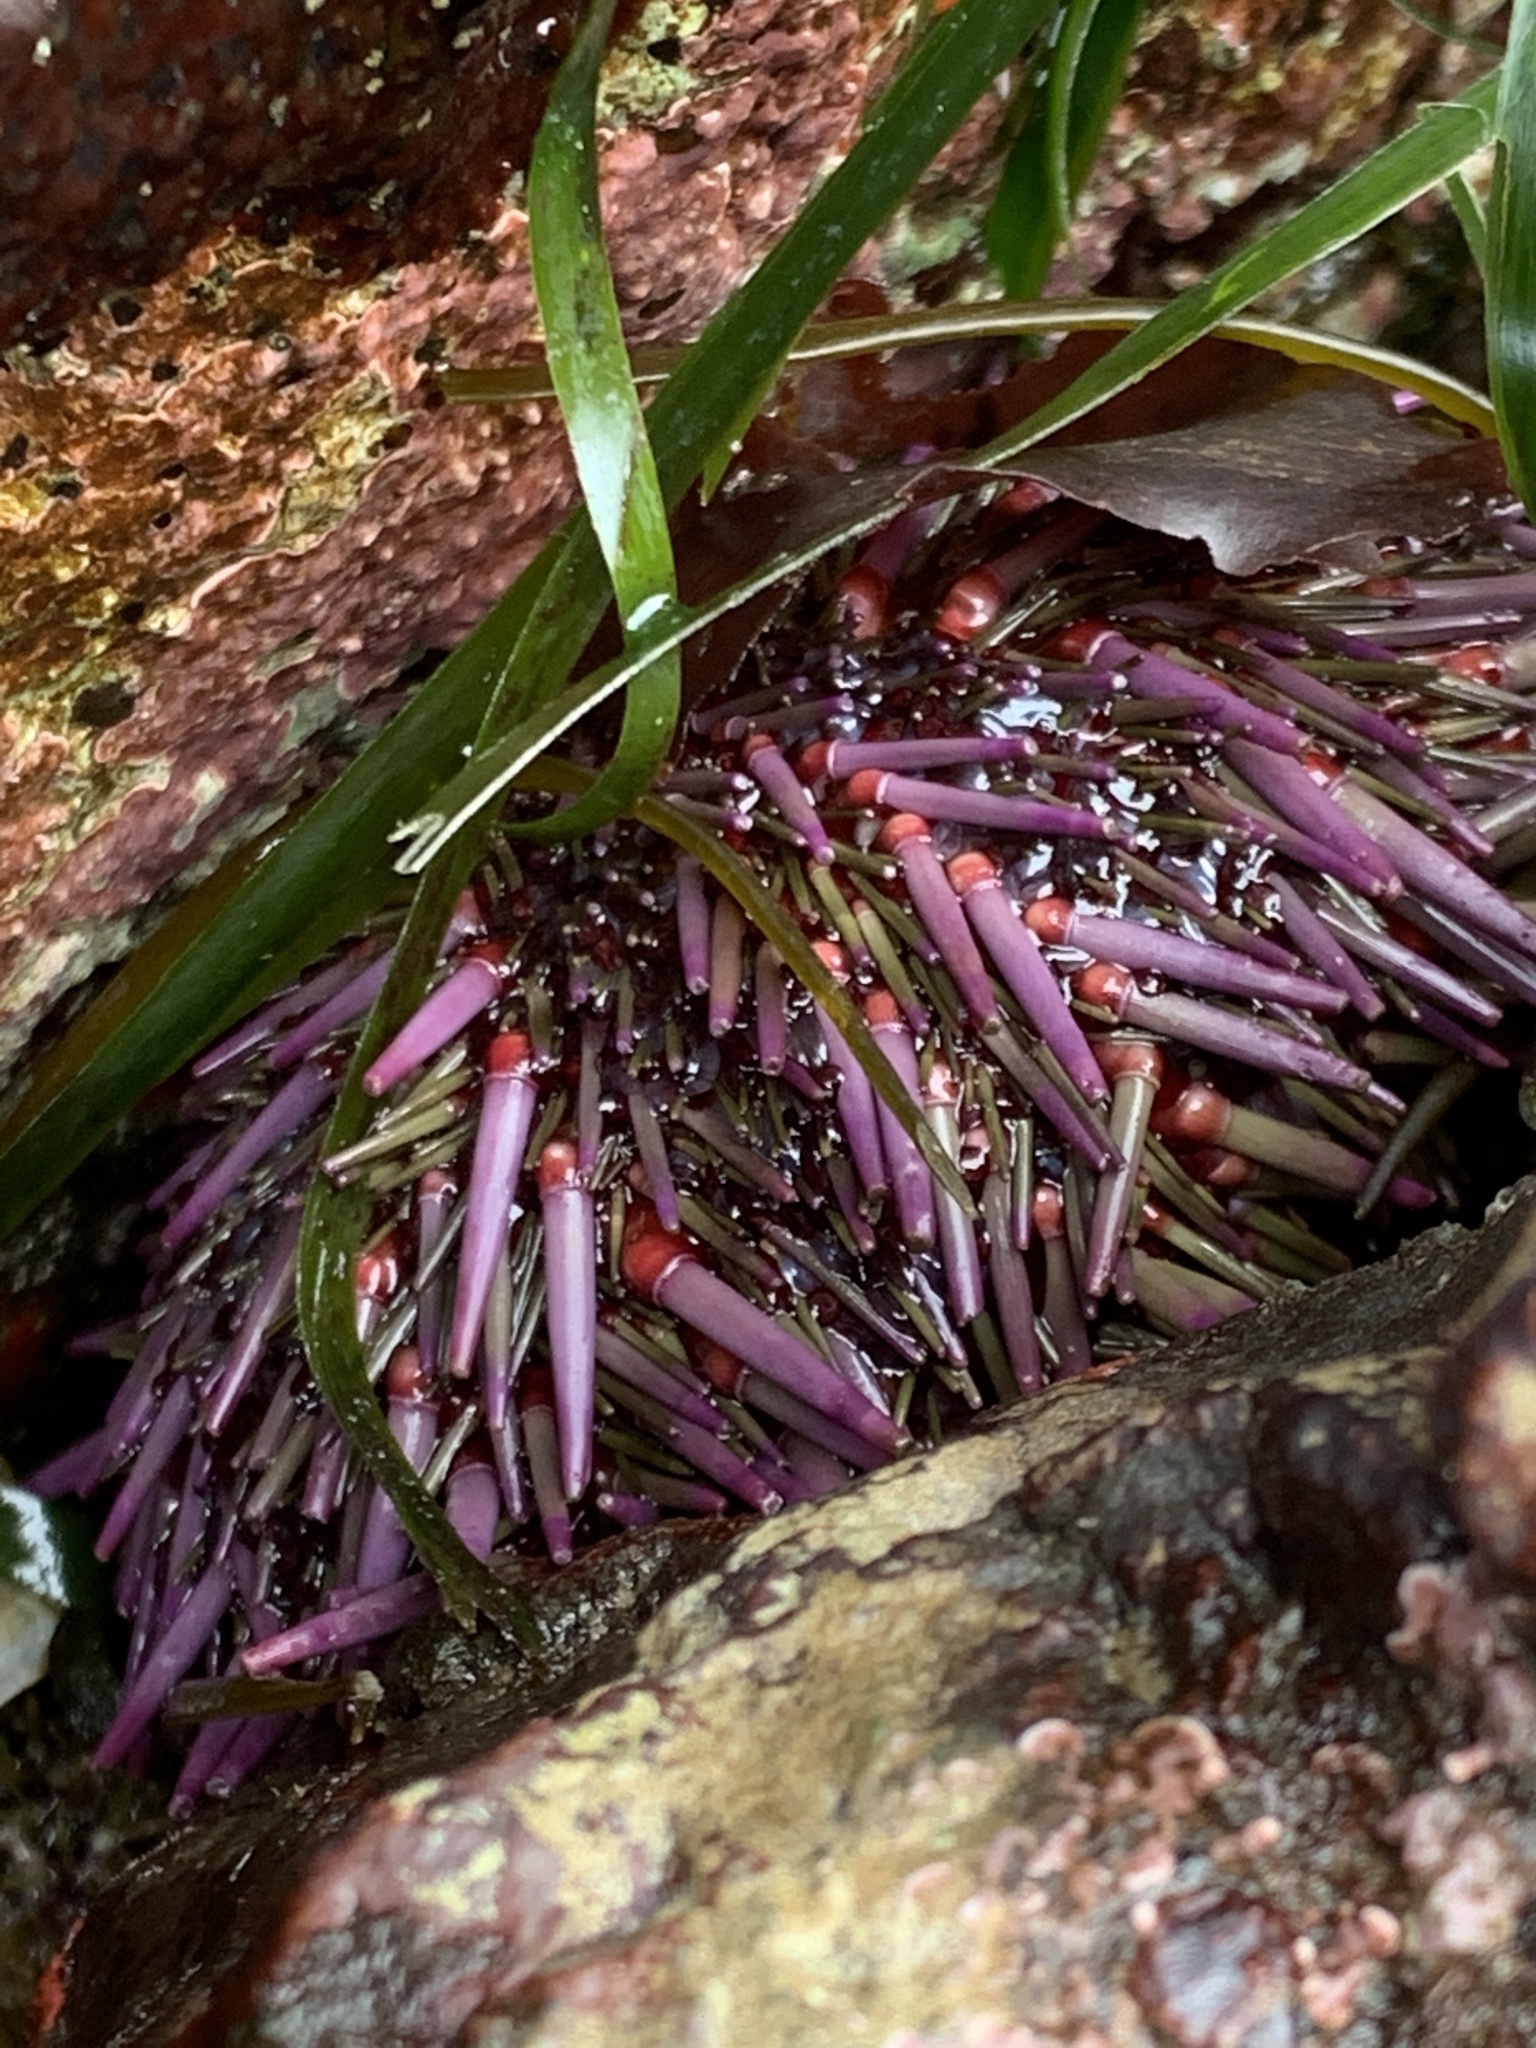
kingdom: Animalia
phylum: Echinodermata
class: Echinoidea
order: Camarodonta
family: Strongylocentrotidae
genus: Strongylocentrotus
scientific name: Strongylocentrotus purpuratus
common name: Purple sea urchin
